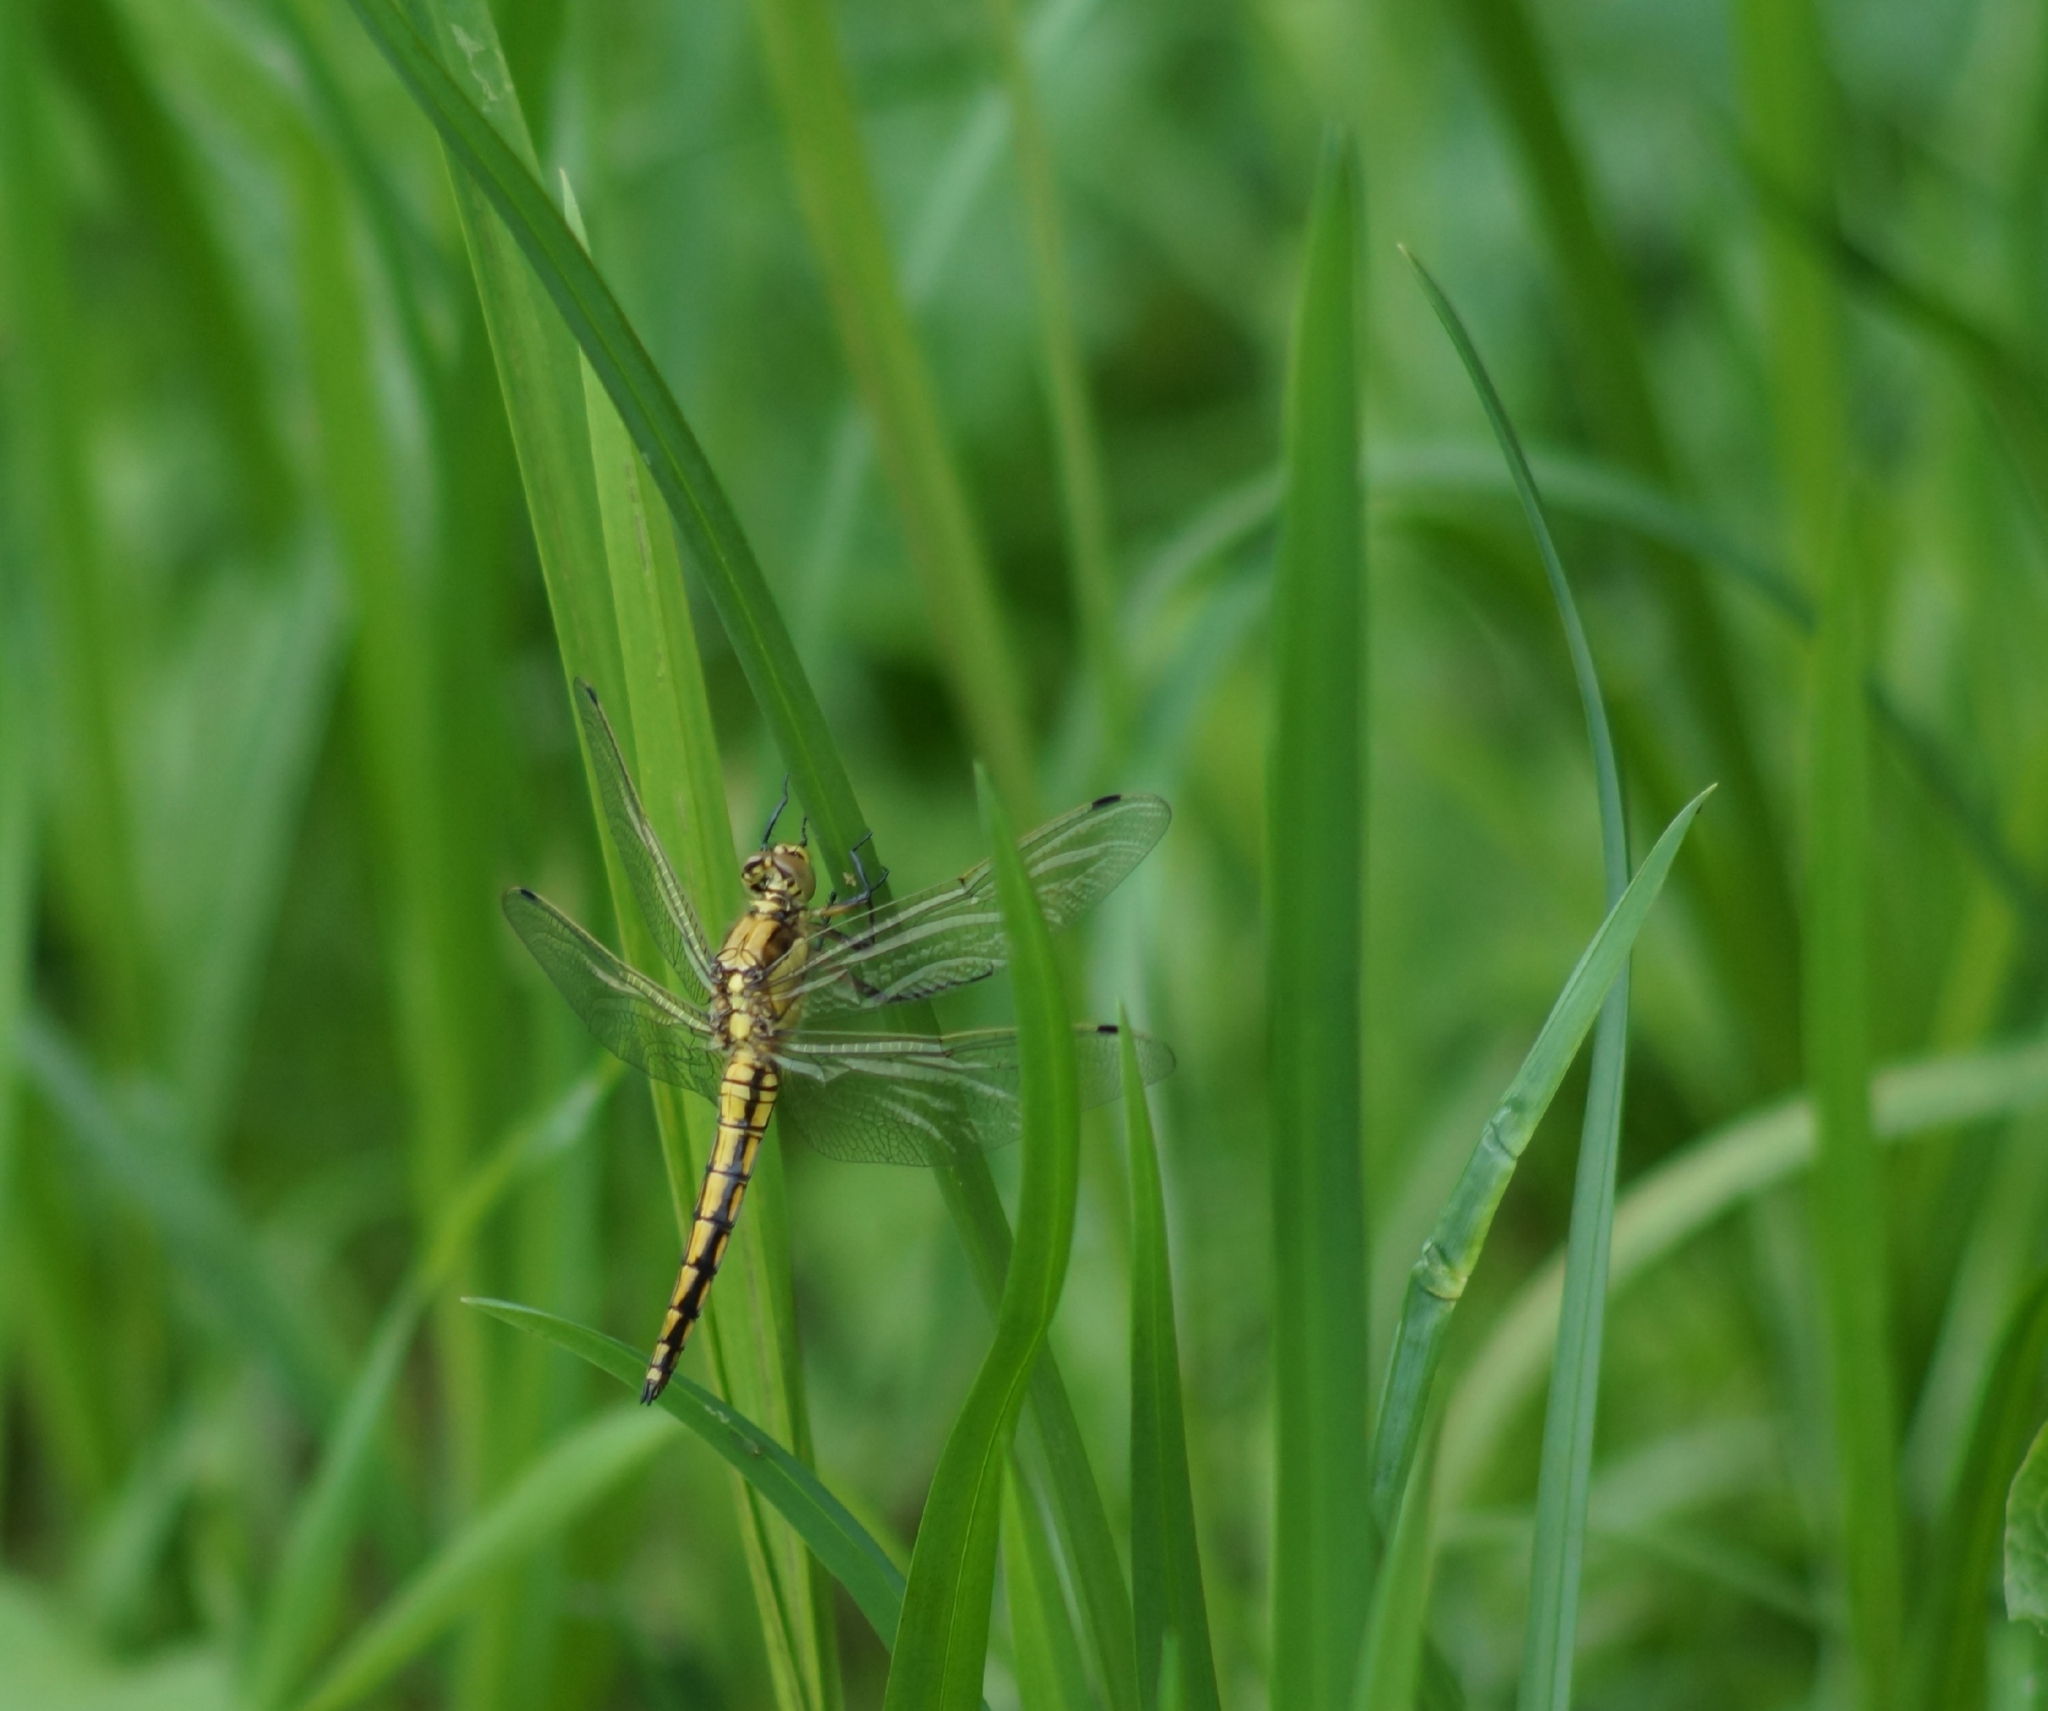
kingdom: Animalia
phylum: Arthropoda
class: Insecta
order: Odonata
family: Libellulidae
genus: Orthetrum
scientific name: Orthetrum cancellatum
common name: Black-tailed skimmer
